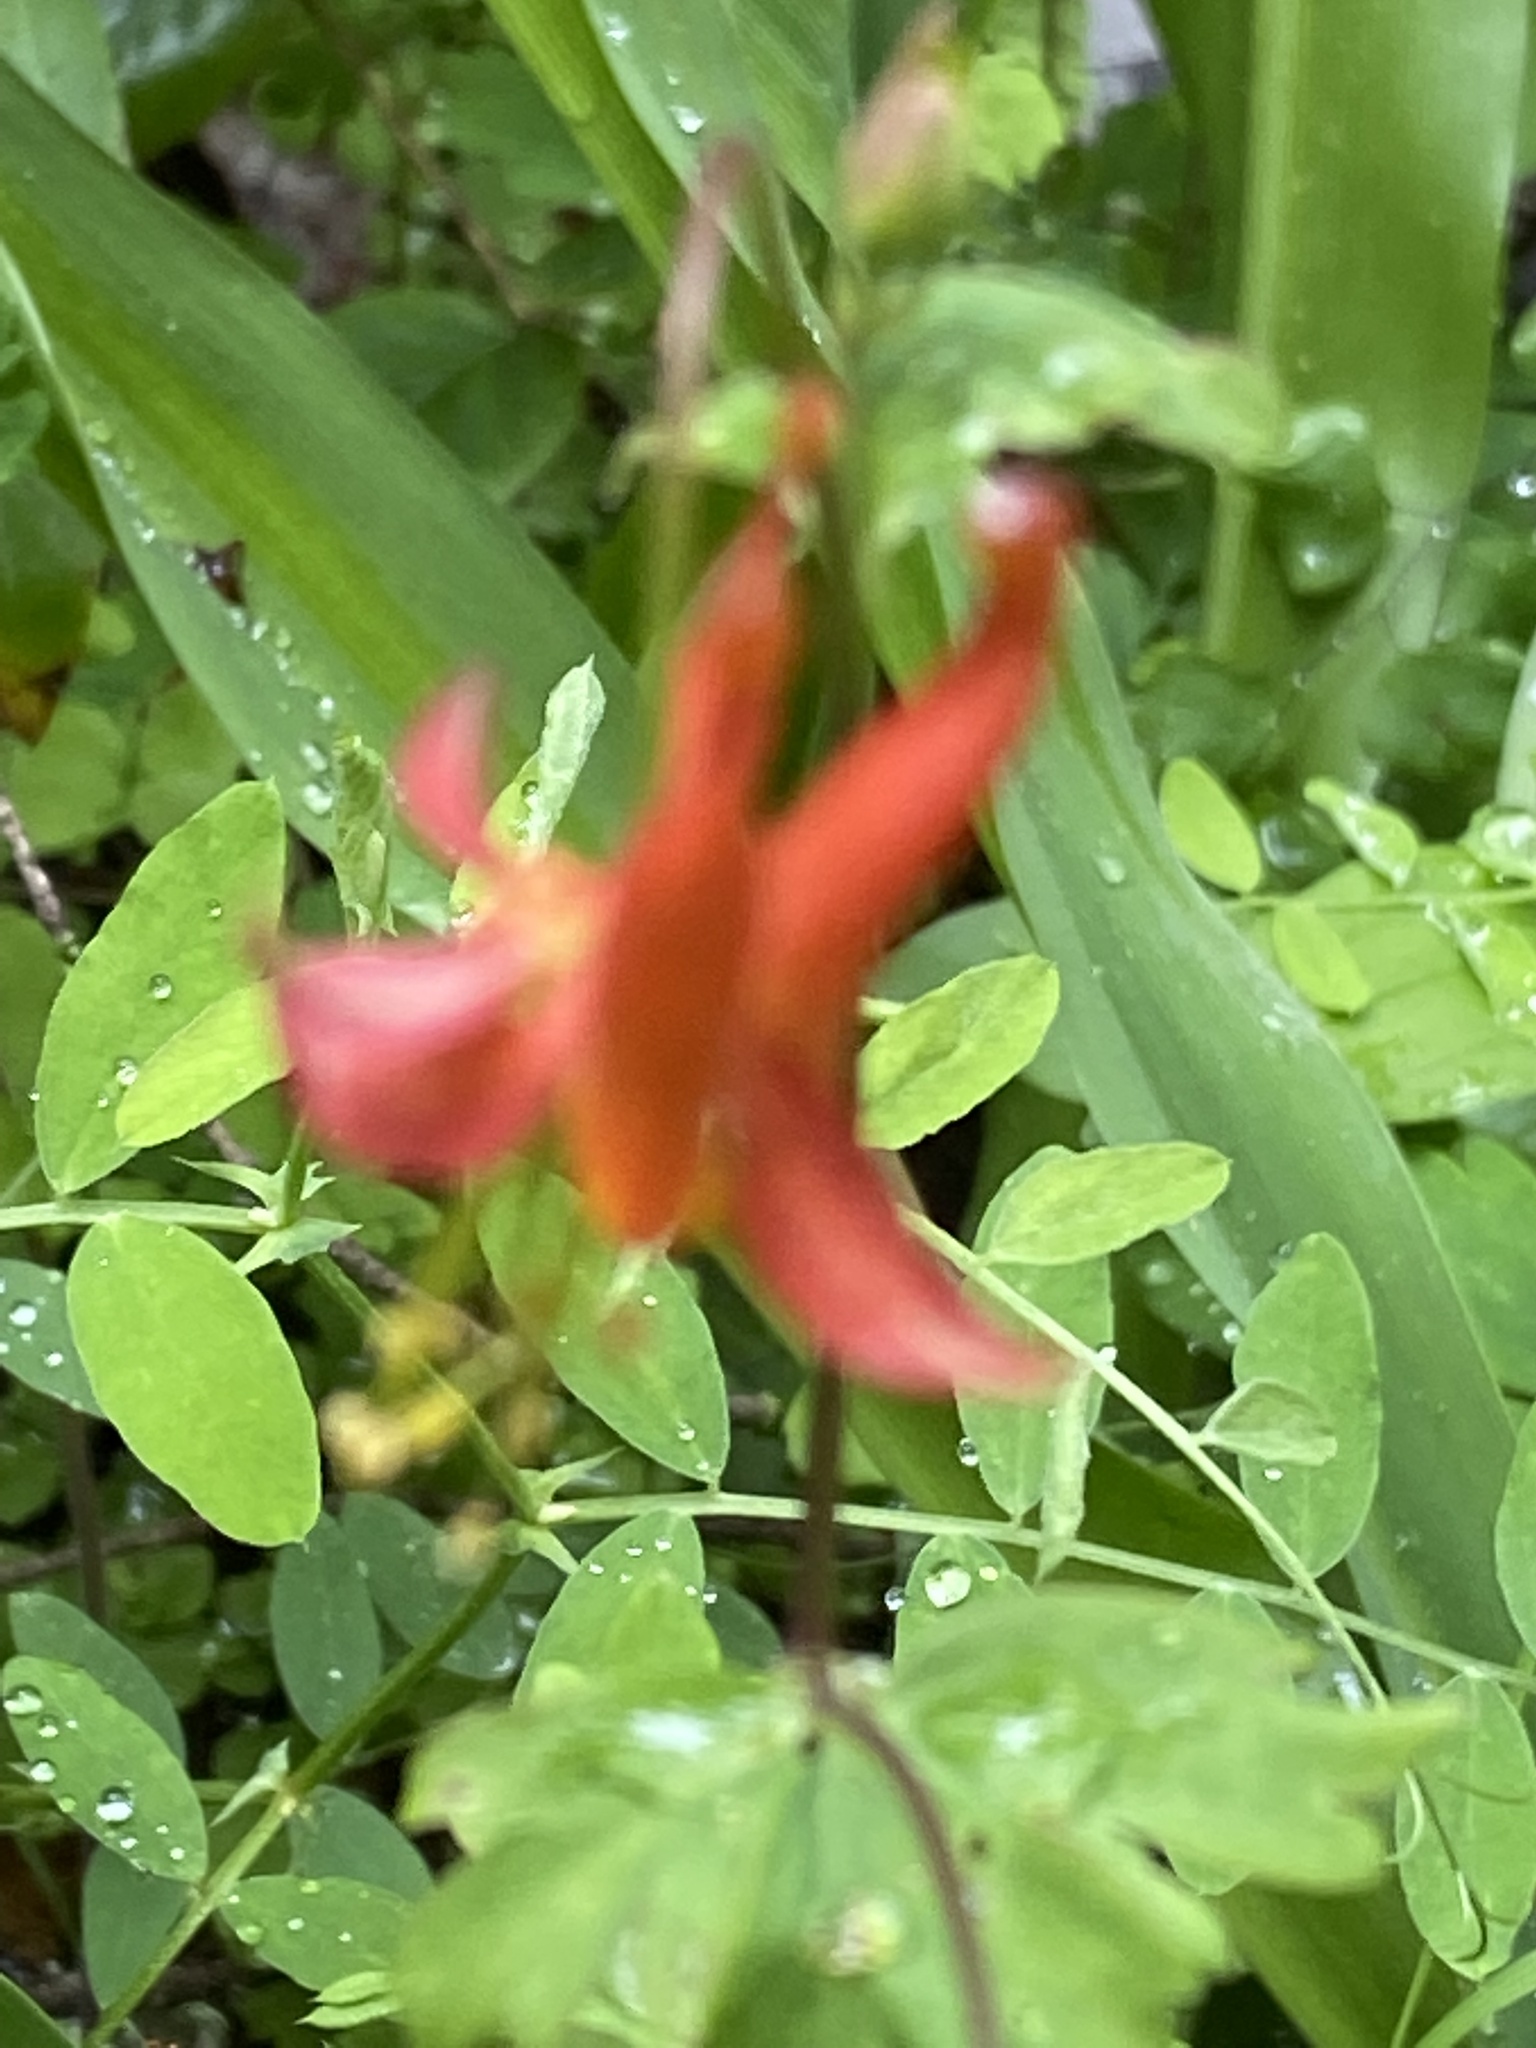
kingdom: Plantae
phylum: Tracheophyta
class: Magnoliopsida
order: Ranunculales
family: Ranunculaceae
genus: Aquilegia
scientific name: Aquilegia formosa
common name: Sitka columbine
